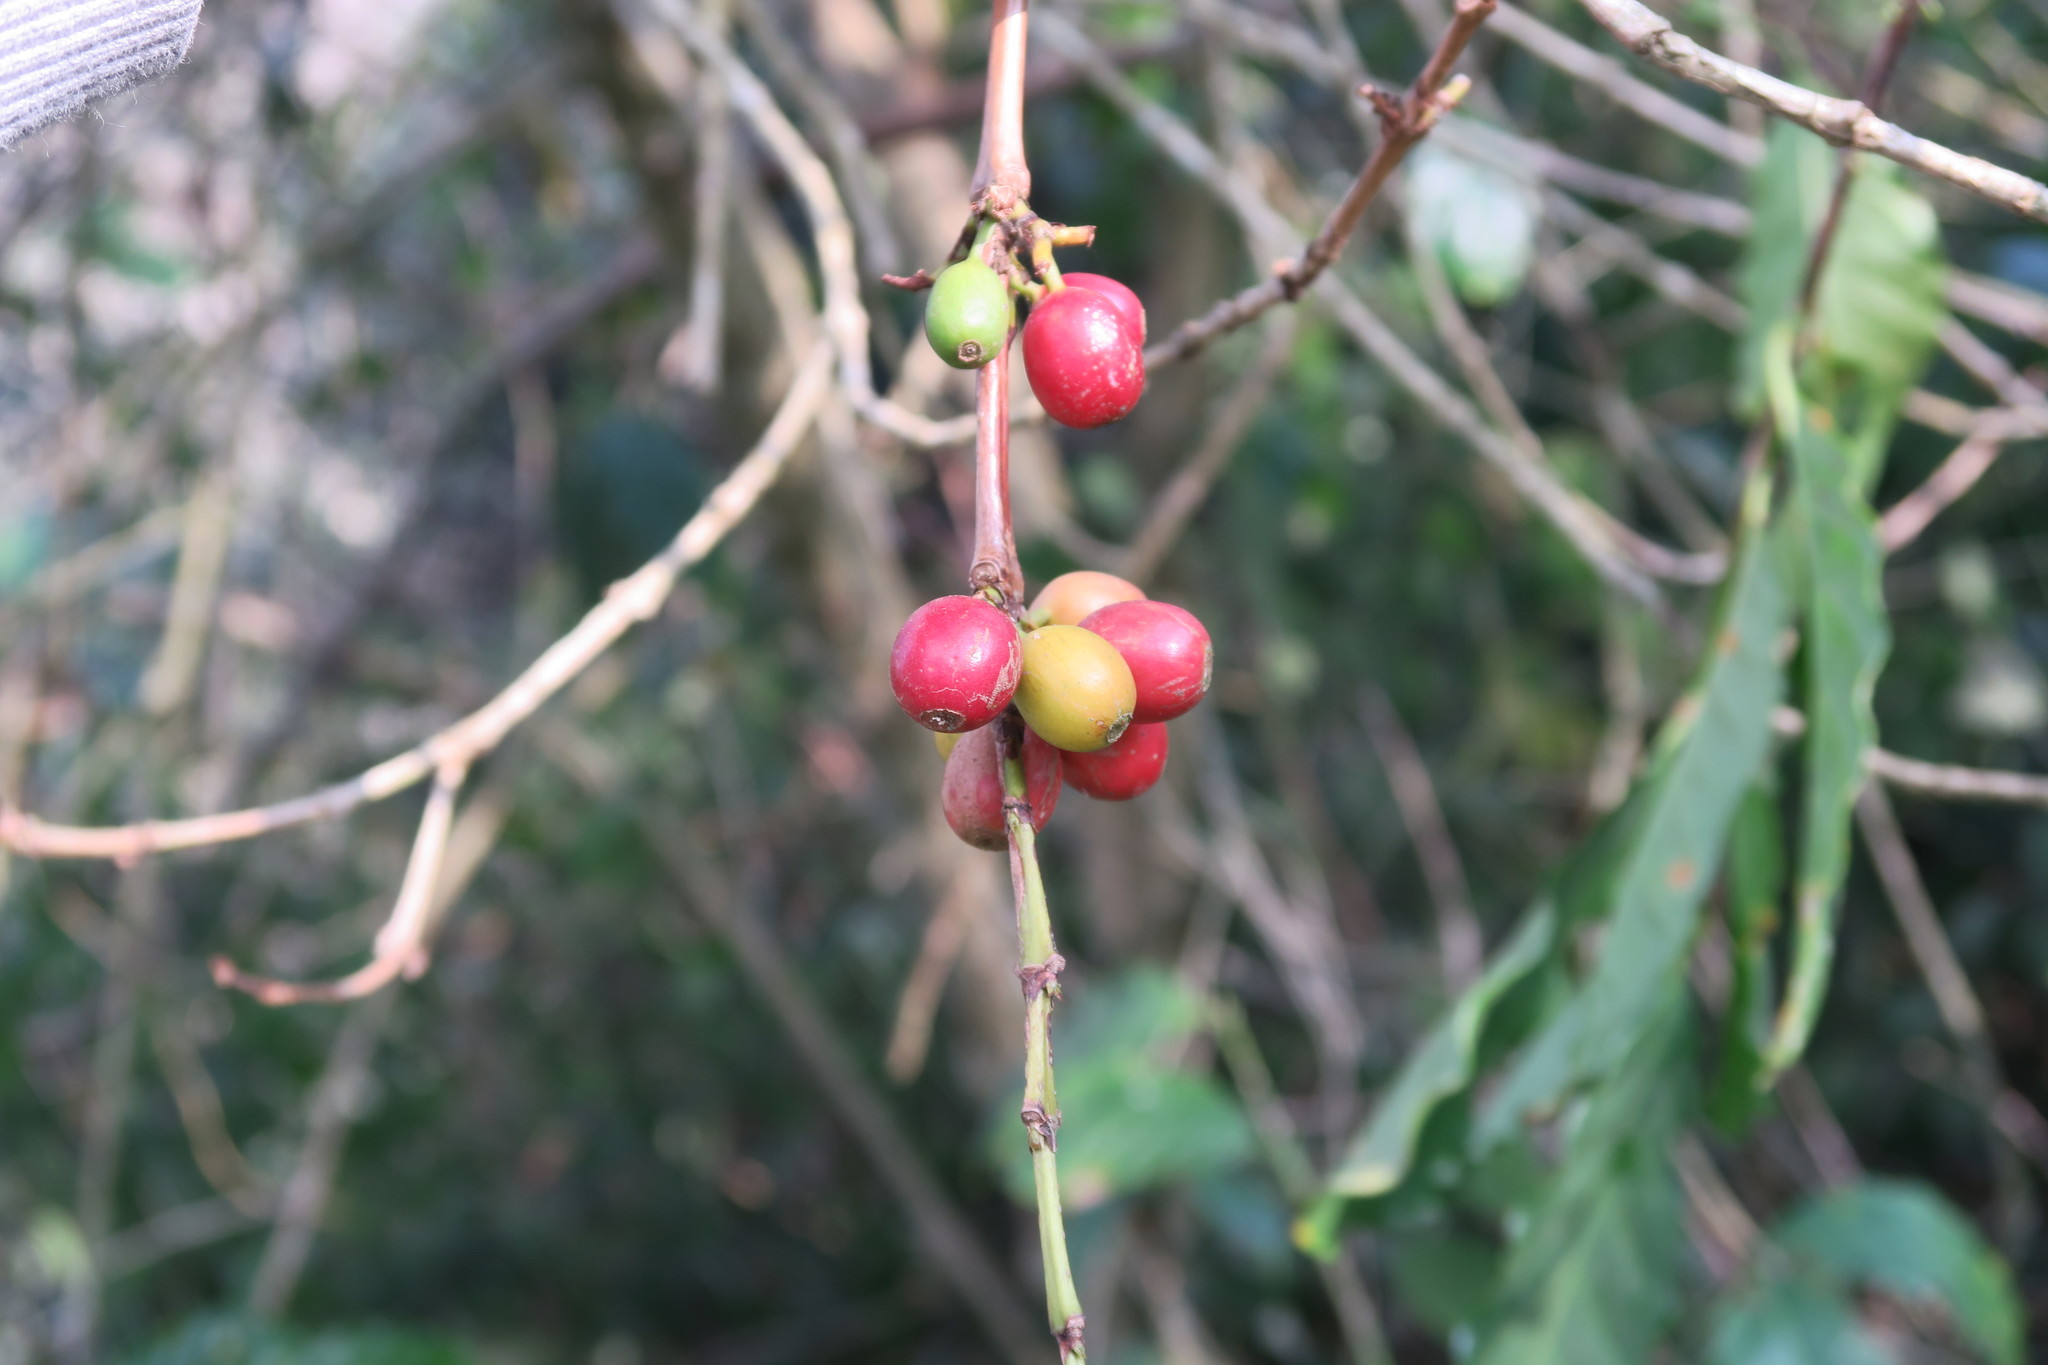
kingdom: Plantae
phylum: Tracheophyta
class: Magnoliopsida
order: Gentianales
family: Rubiaceae
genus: Coffea
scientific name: Coffea arabica
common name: Coffee
